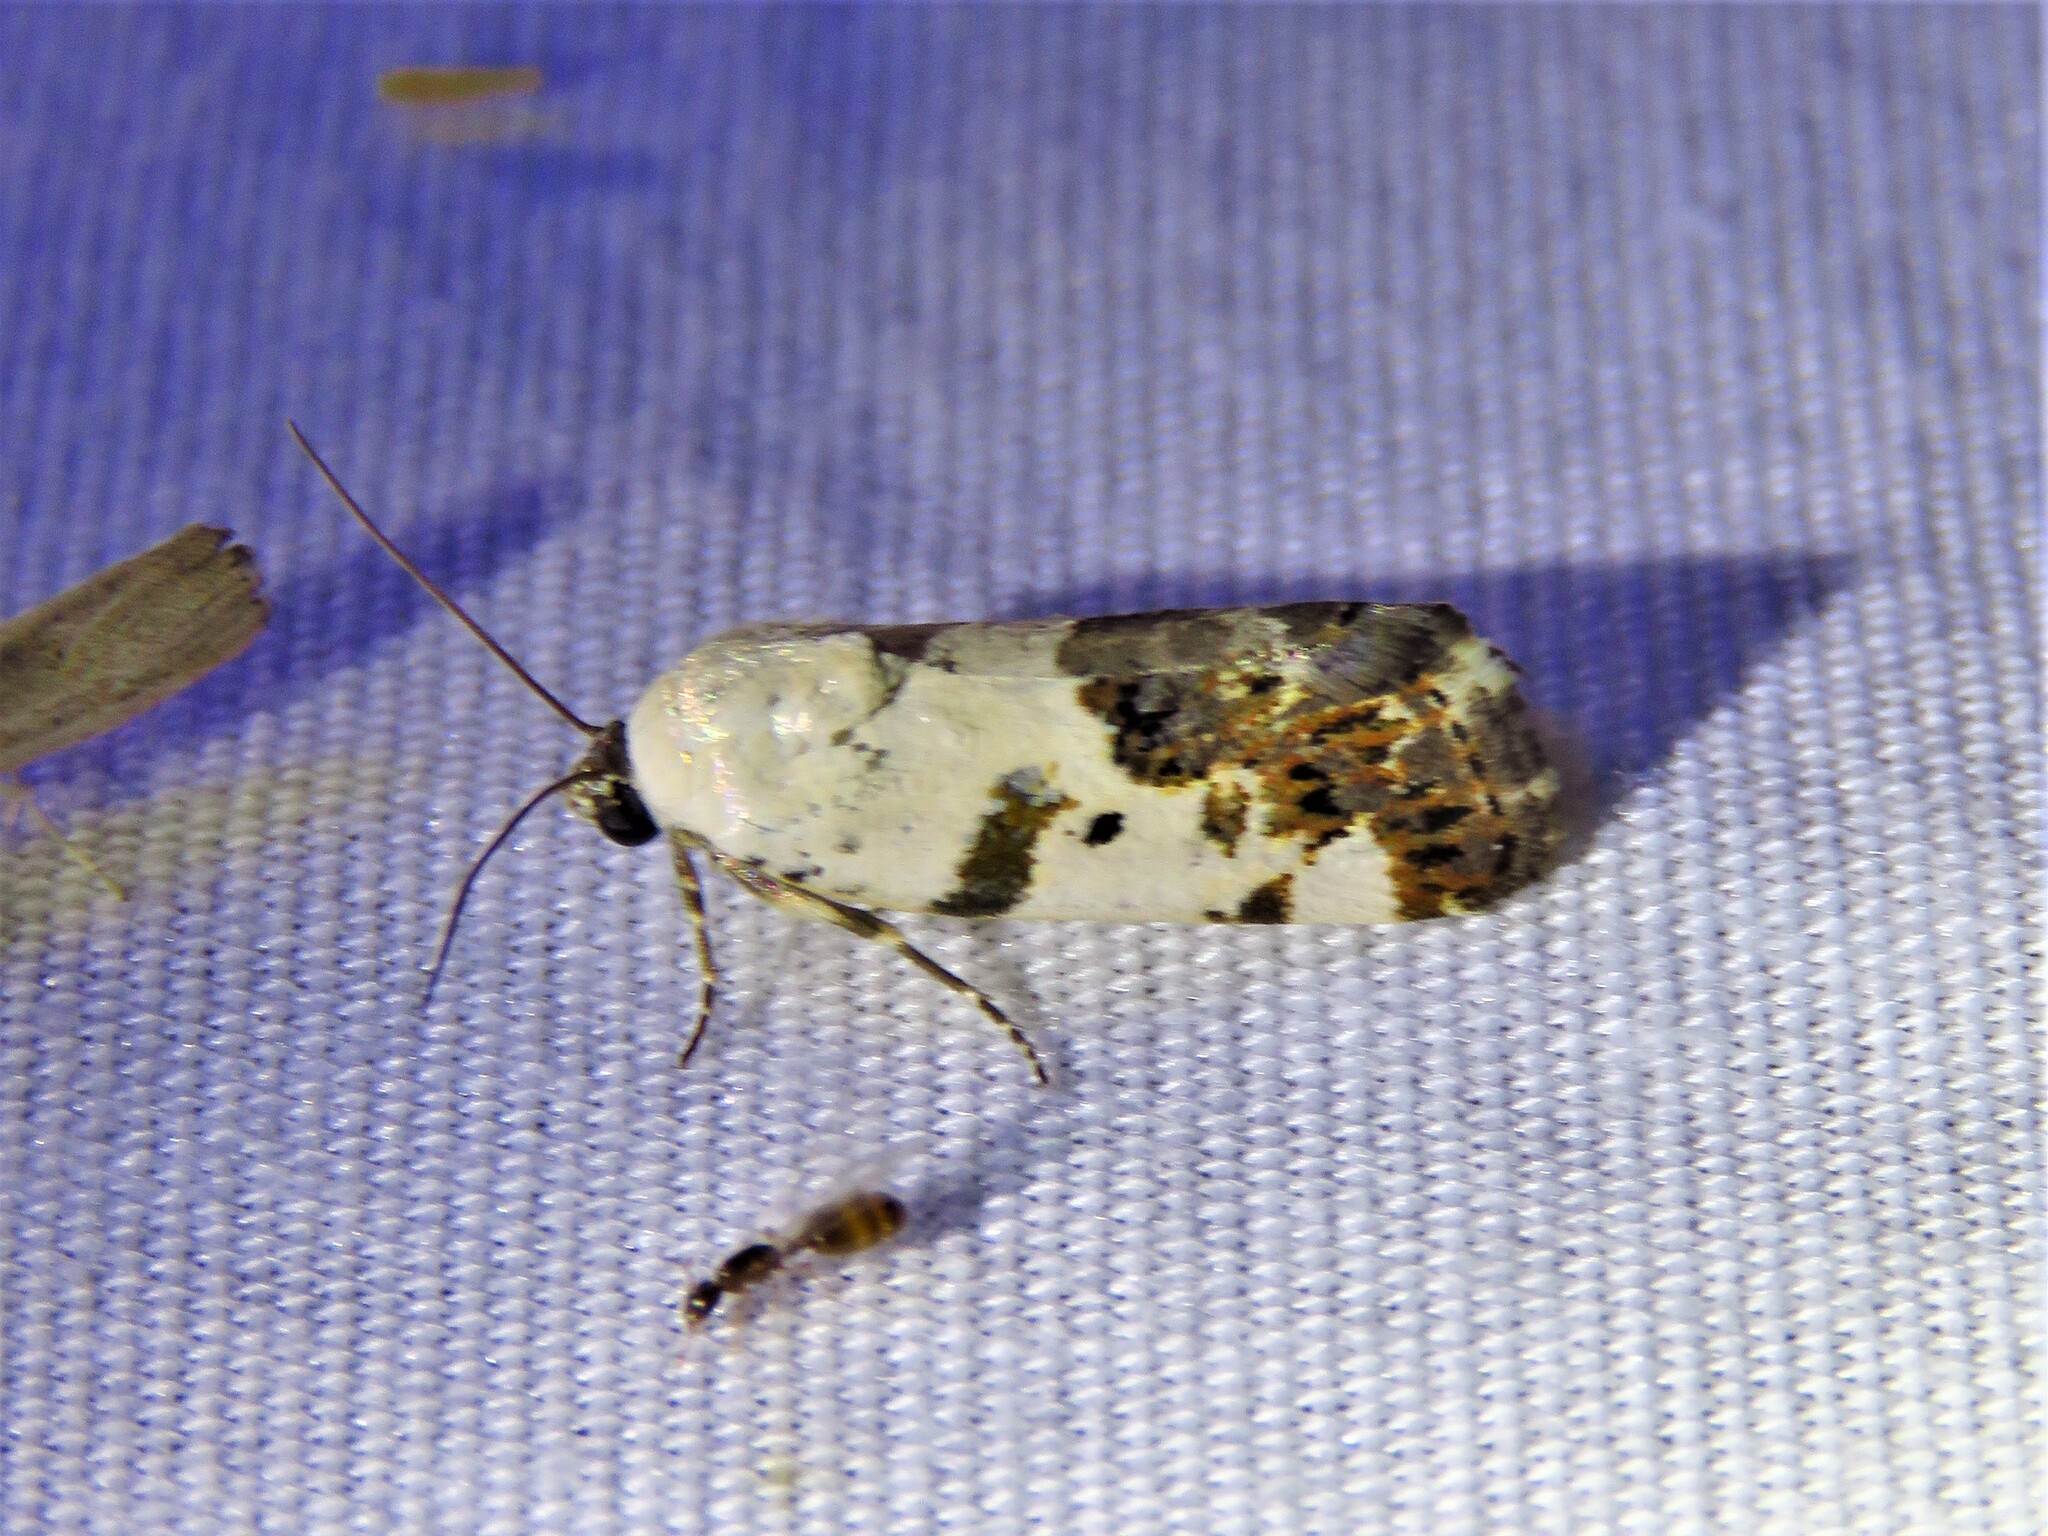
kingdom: Animalia
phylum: Arthropoda
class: Insecta
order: Lepidoptera
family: Noctuidae
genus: Acontia
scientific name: Acontia aprica
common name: Nun
